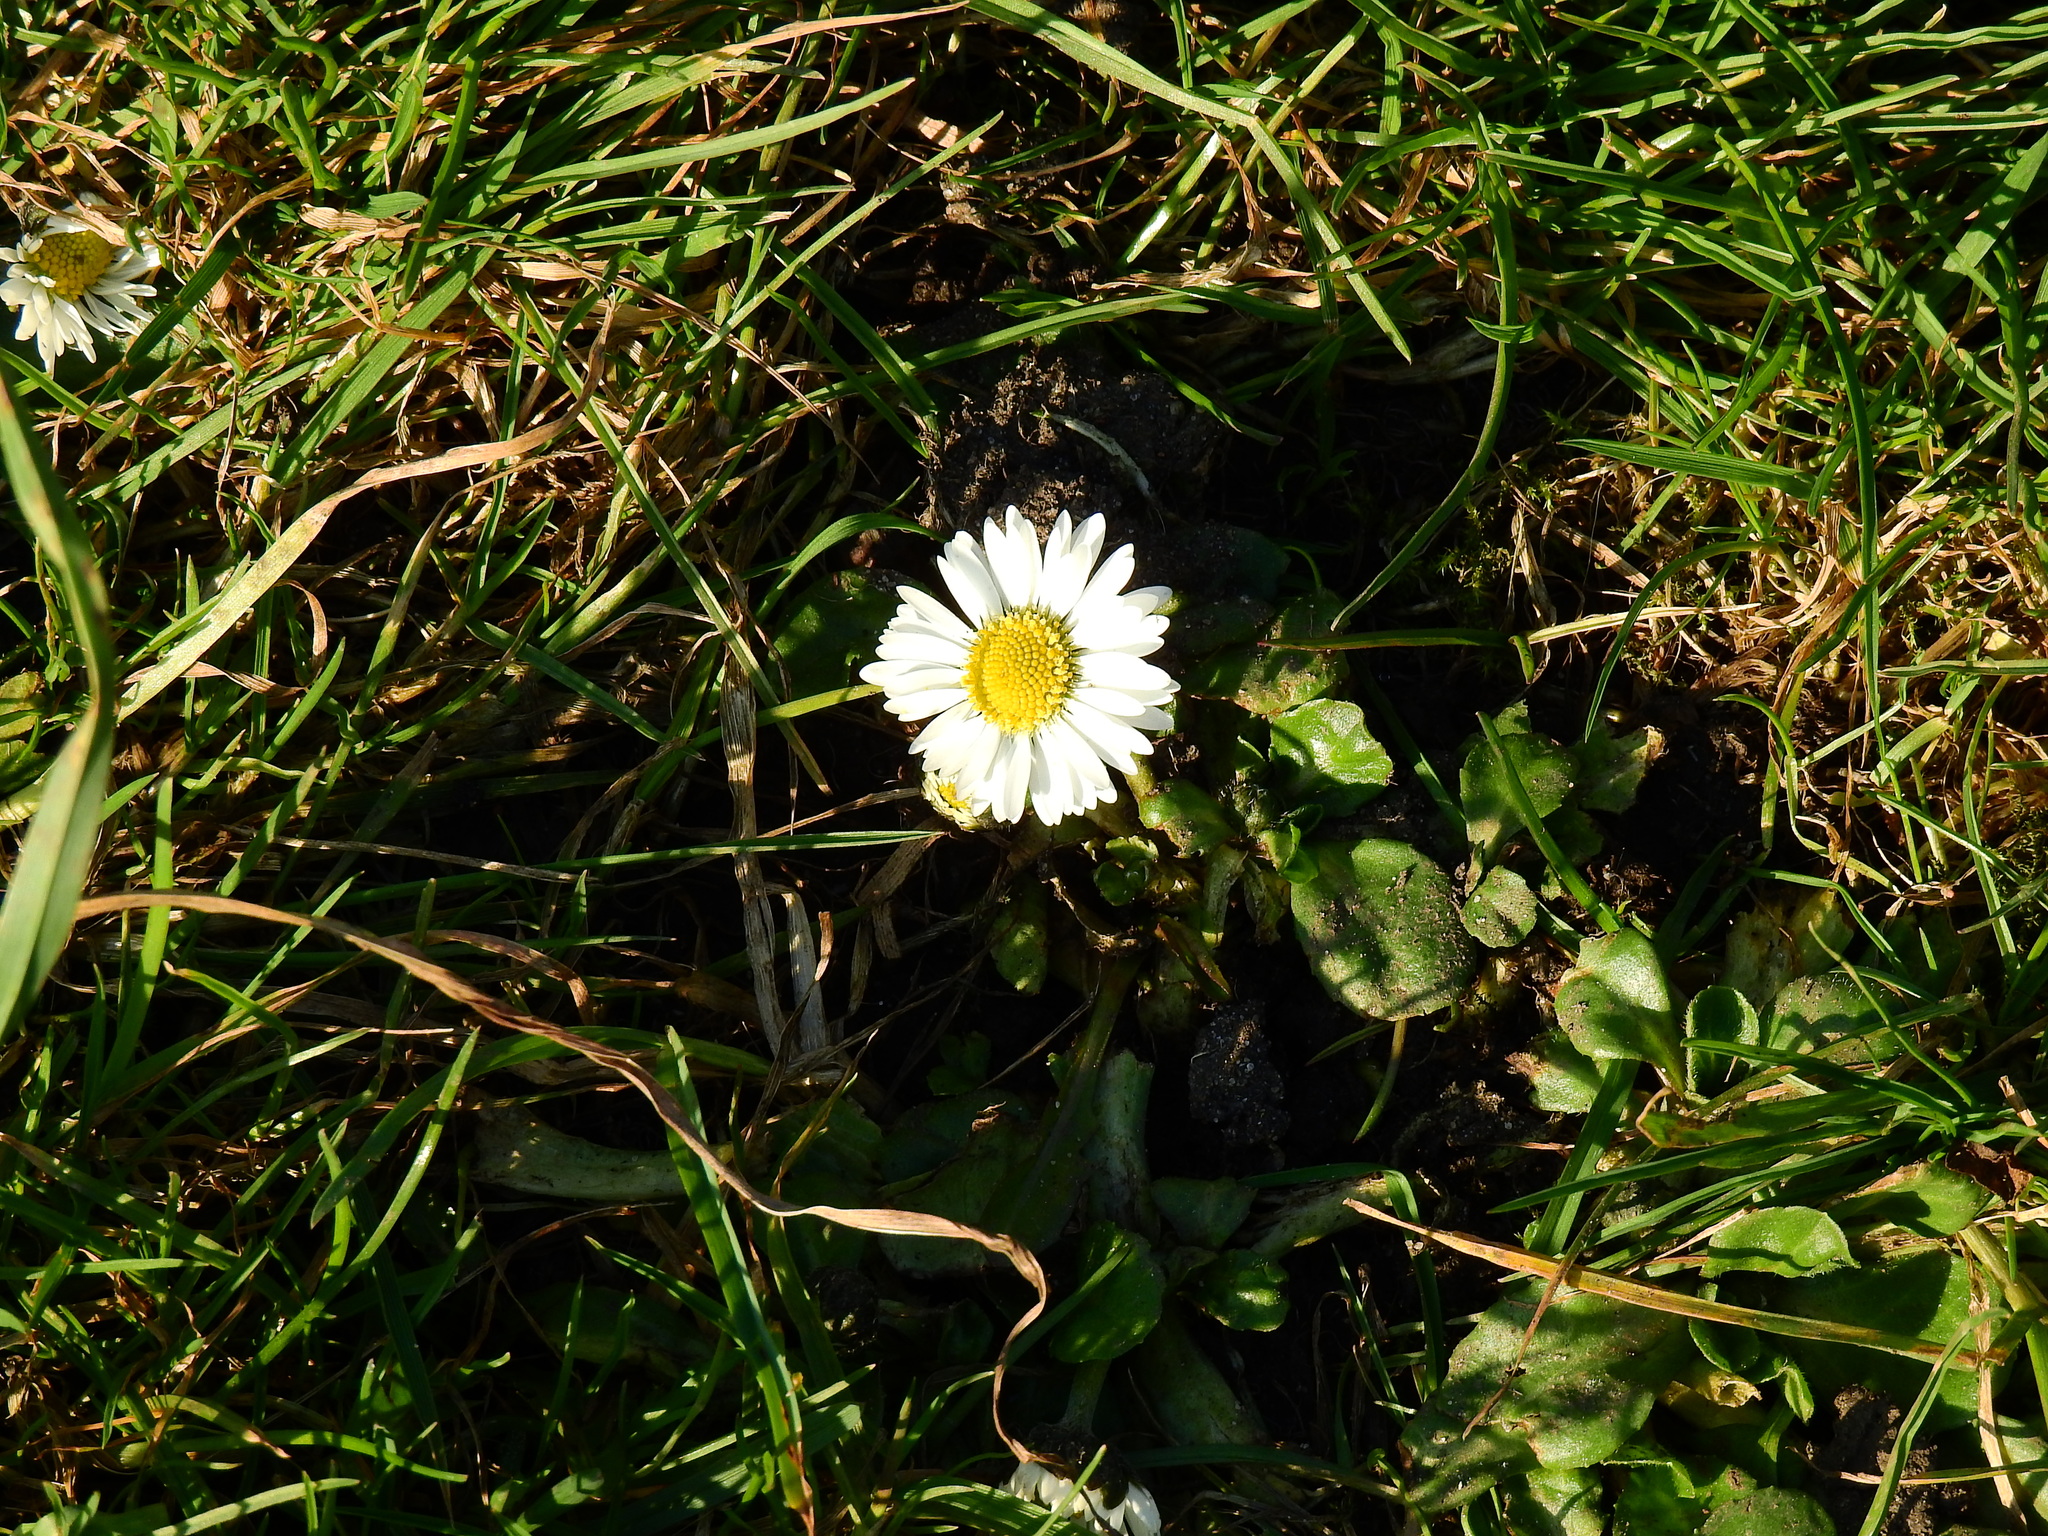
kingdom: Plantae
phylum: Tracheophyta
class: Magnoliopsida
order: Asterales
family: Asteraceae
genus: Bellis
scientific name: Bellis perennis
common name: Lawndaisy
